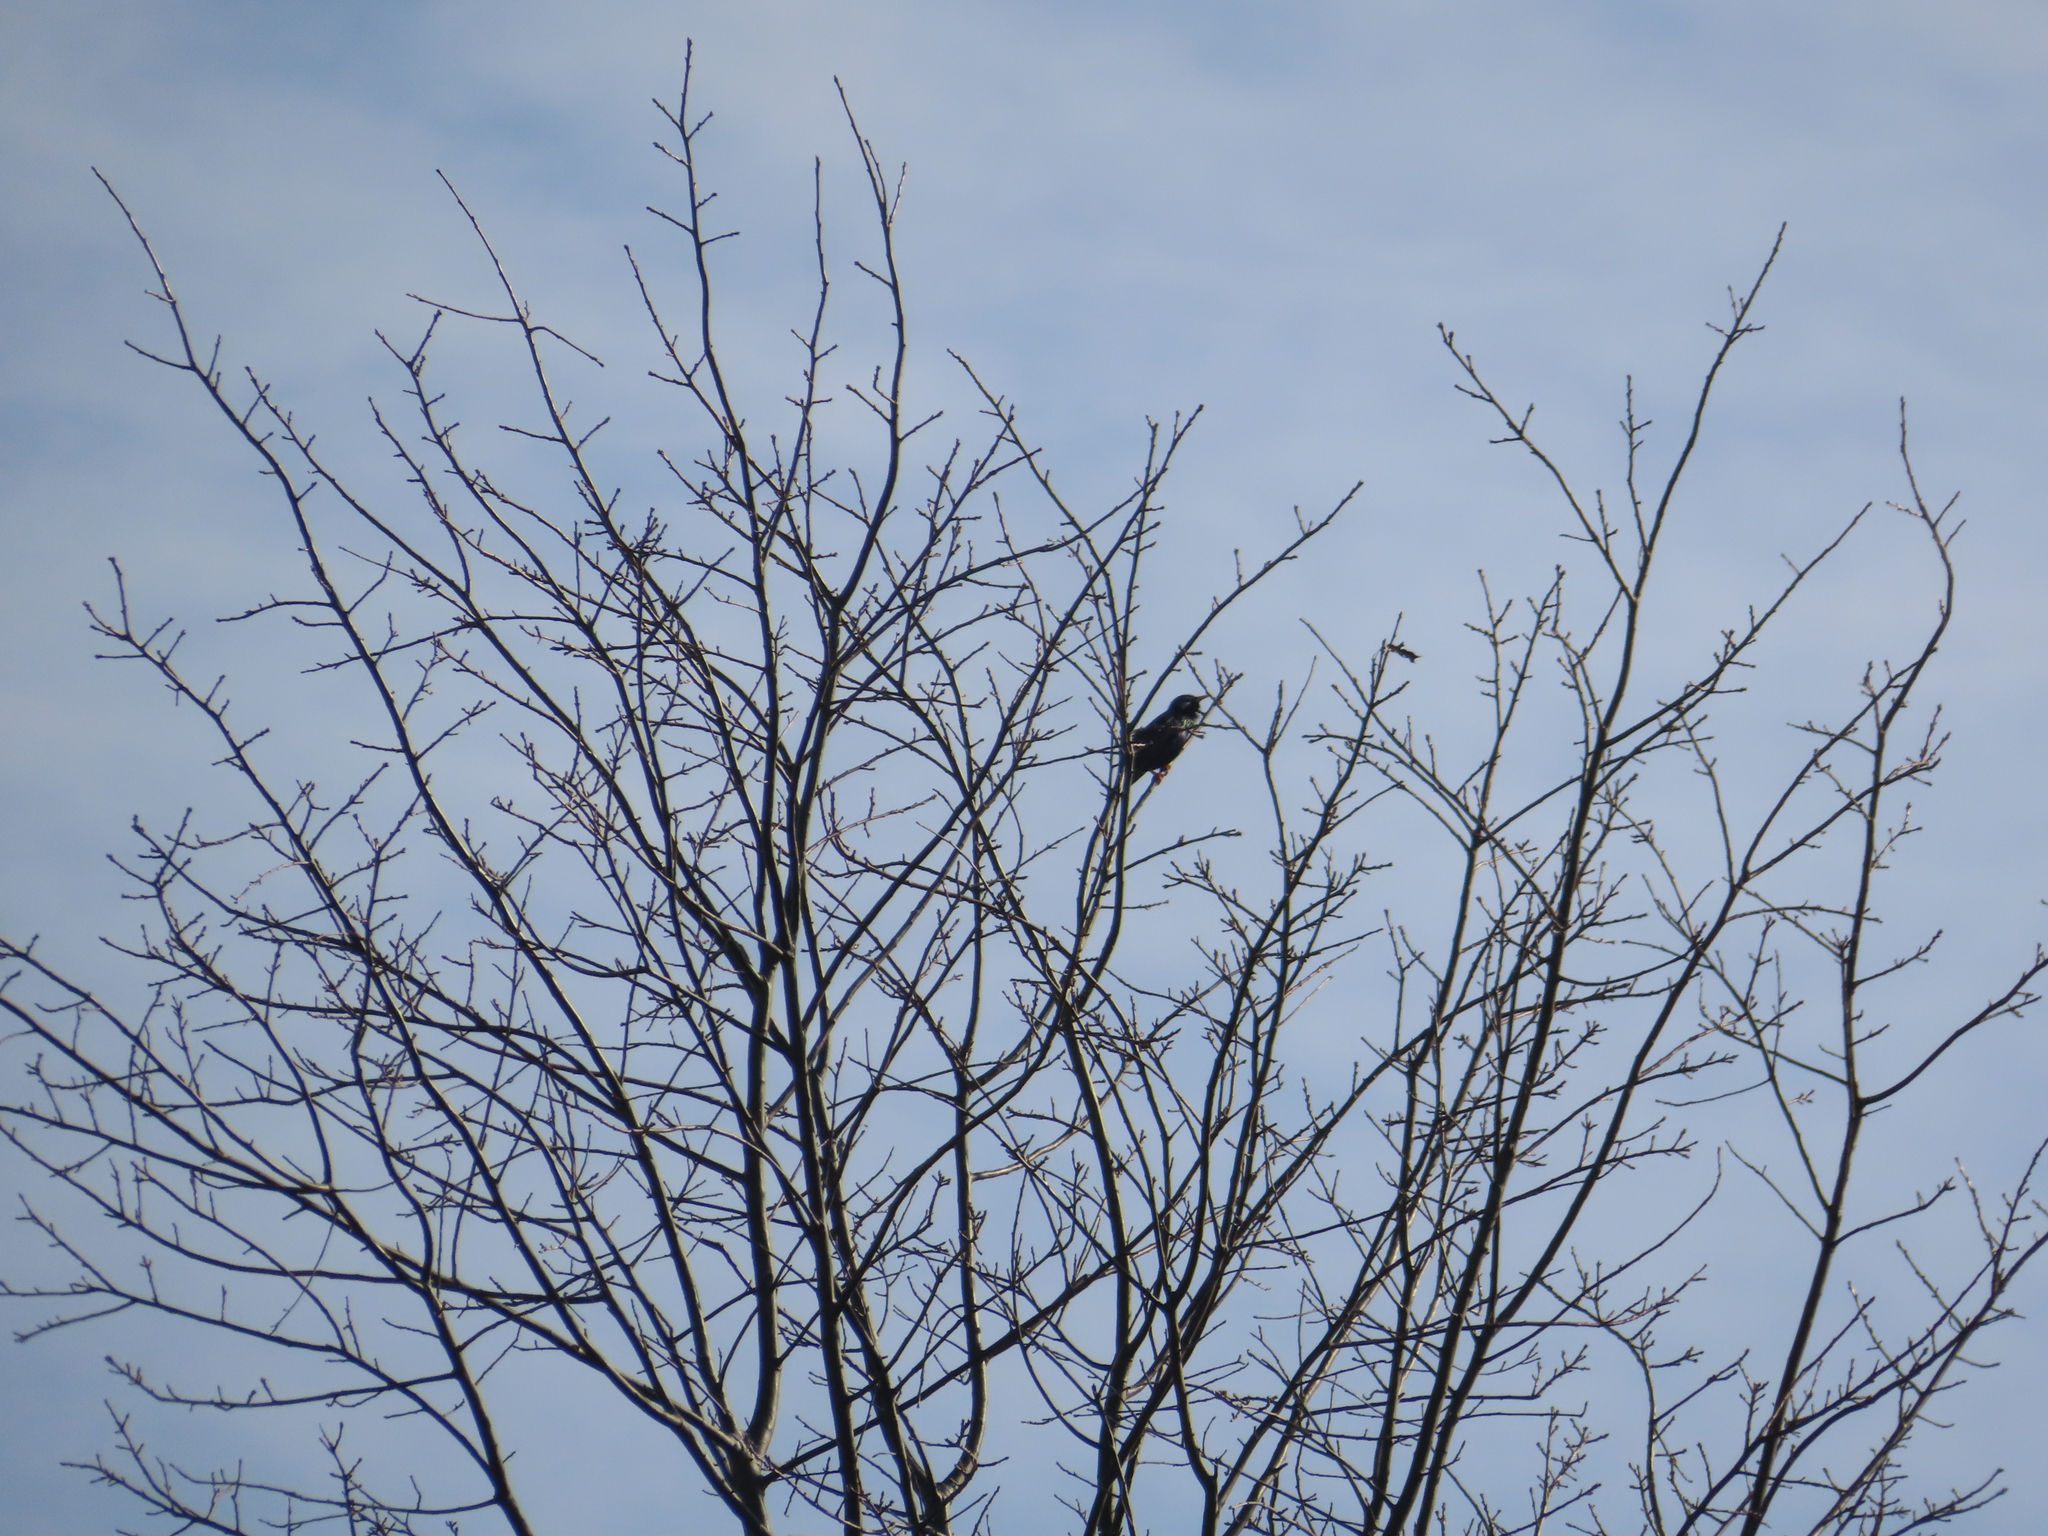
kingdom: Animalia
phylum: Chordata
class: Aves
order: Passeriformes
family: Sturnidae
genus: Sturnus
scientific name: Sturnus vulgaris
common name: Common starling
